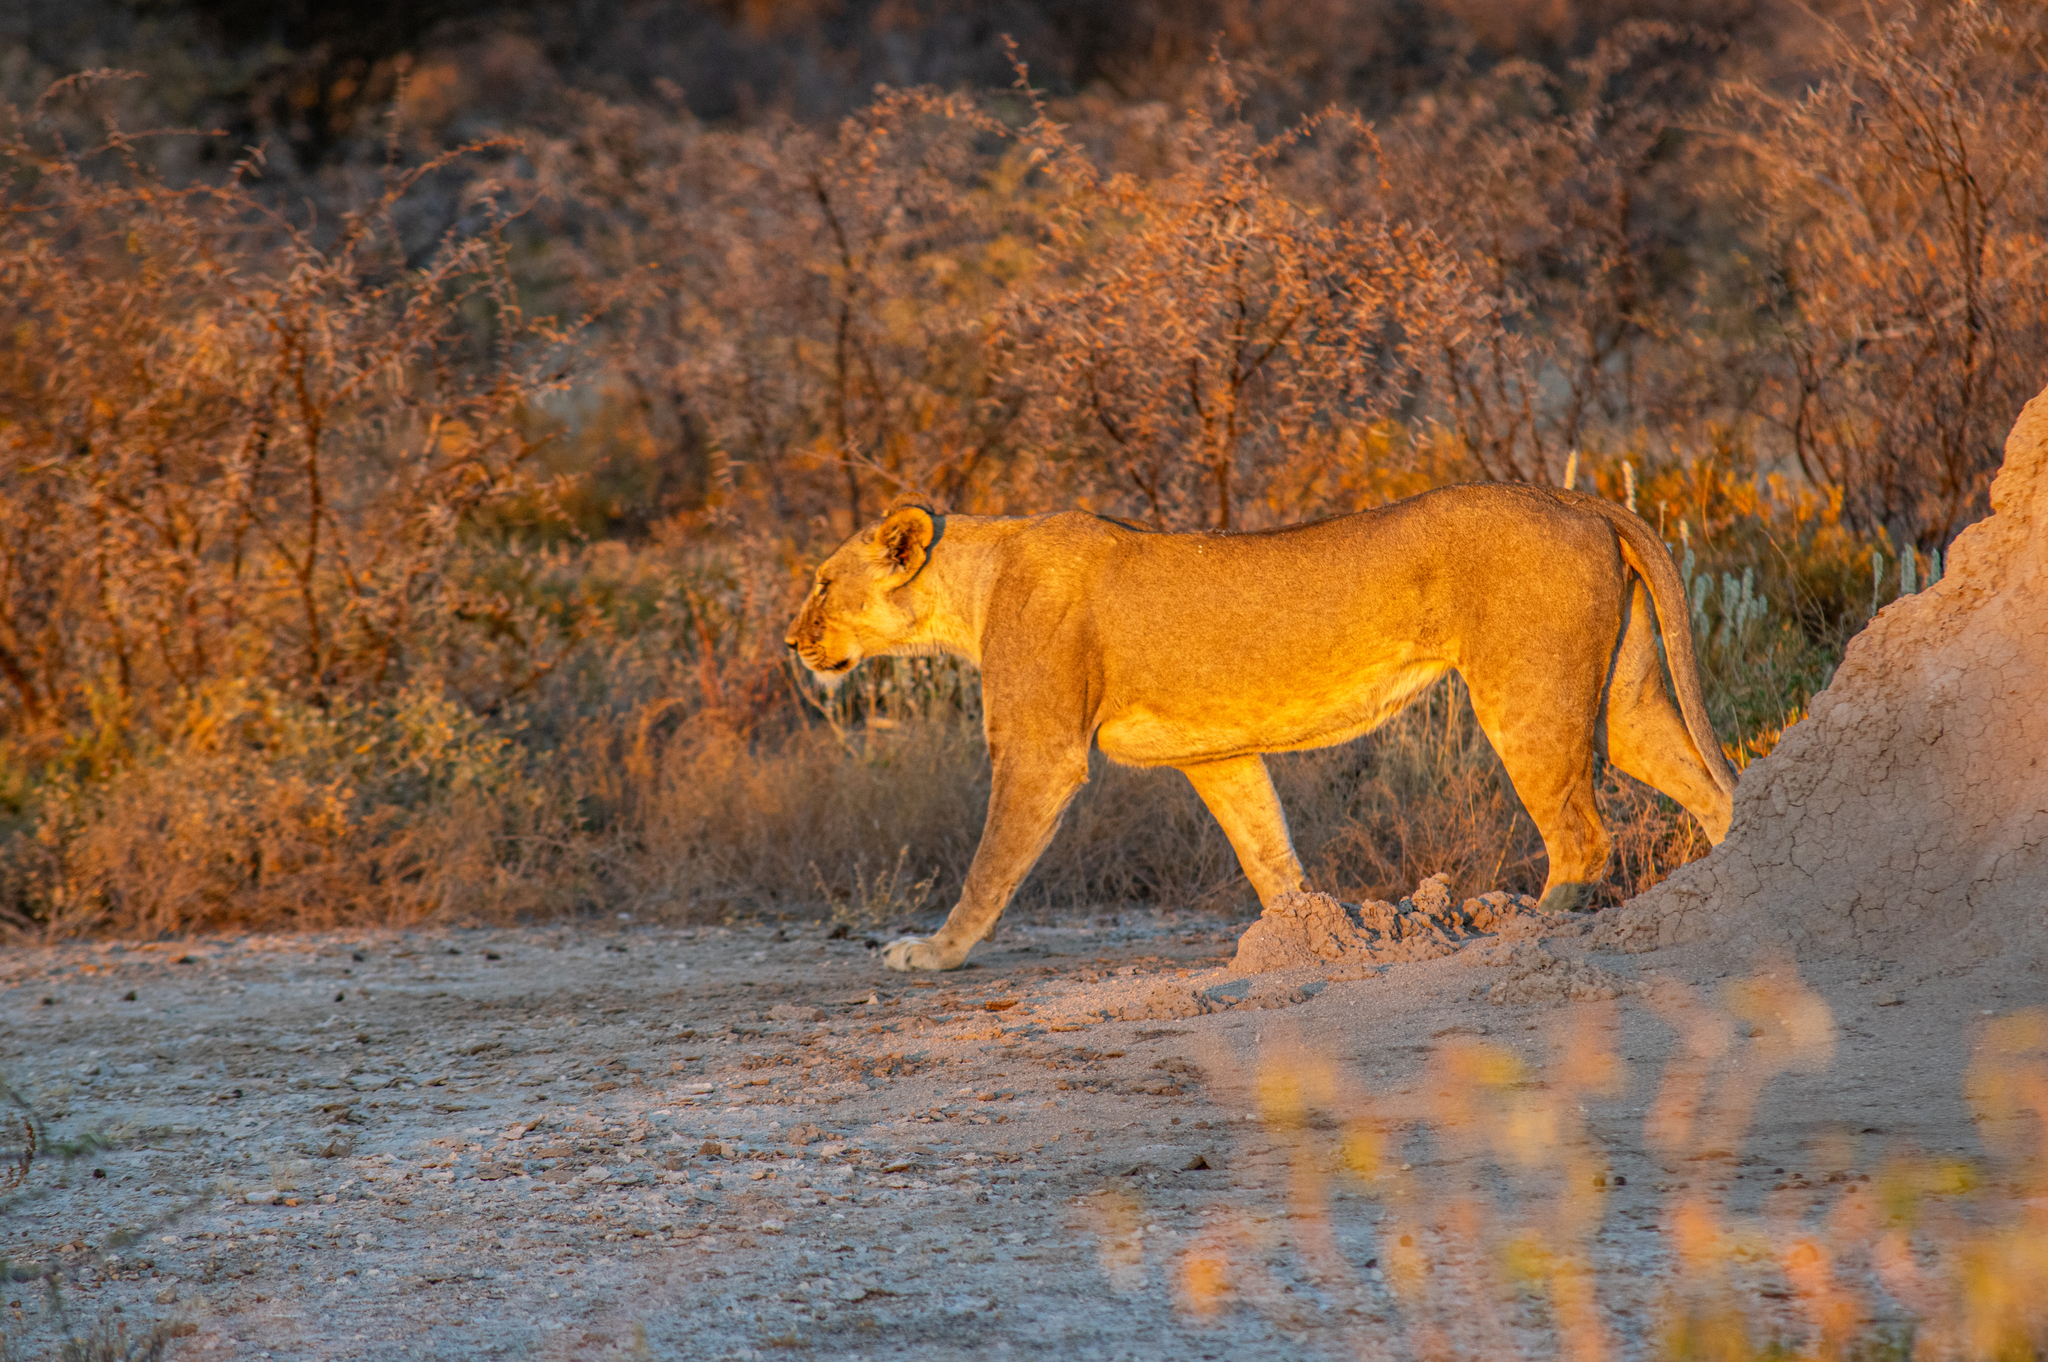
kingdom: Animalia
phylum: Chordata
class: Mammalia
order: Carnivora
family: Felidae
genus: Panthera
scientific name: Panthera leo
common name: Lion
